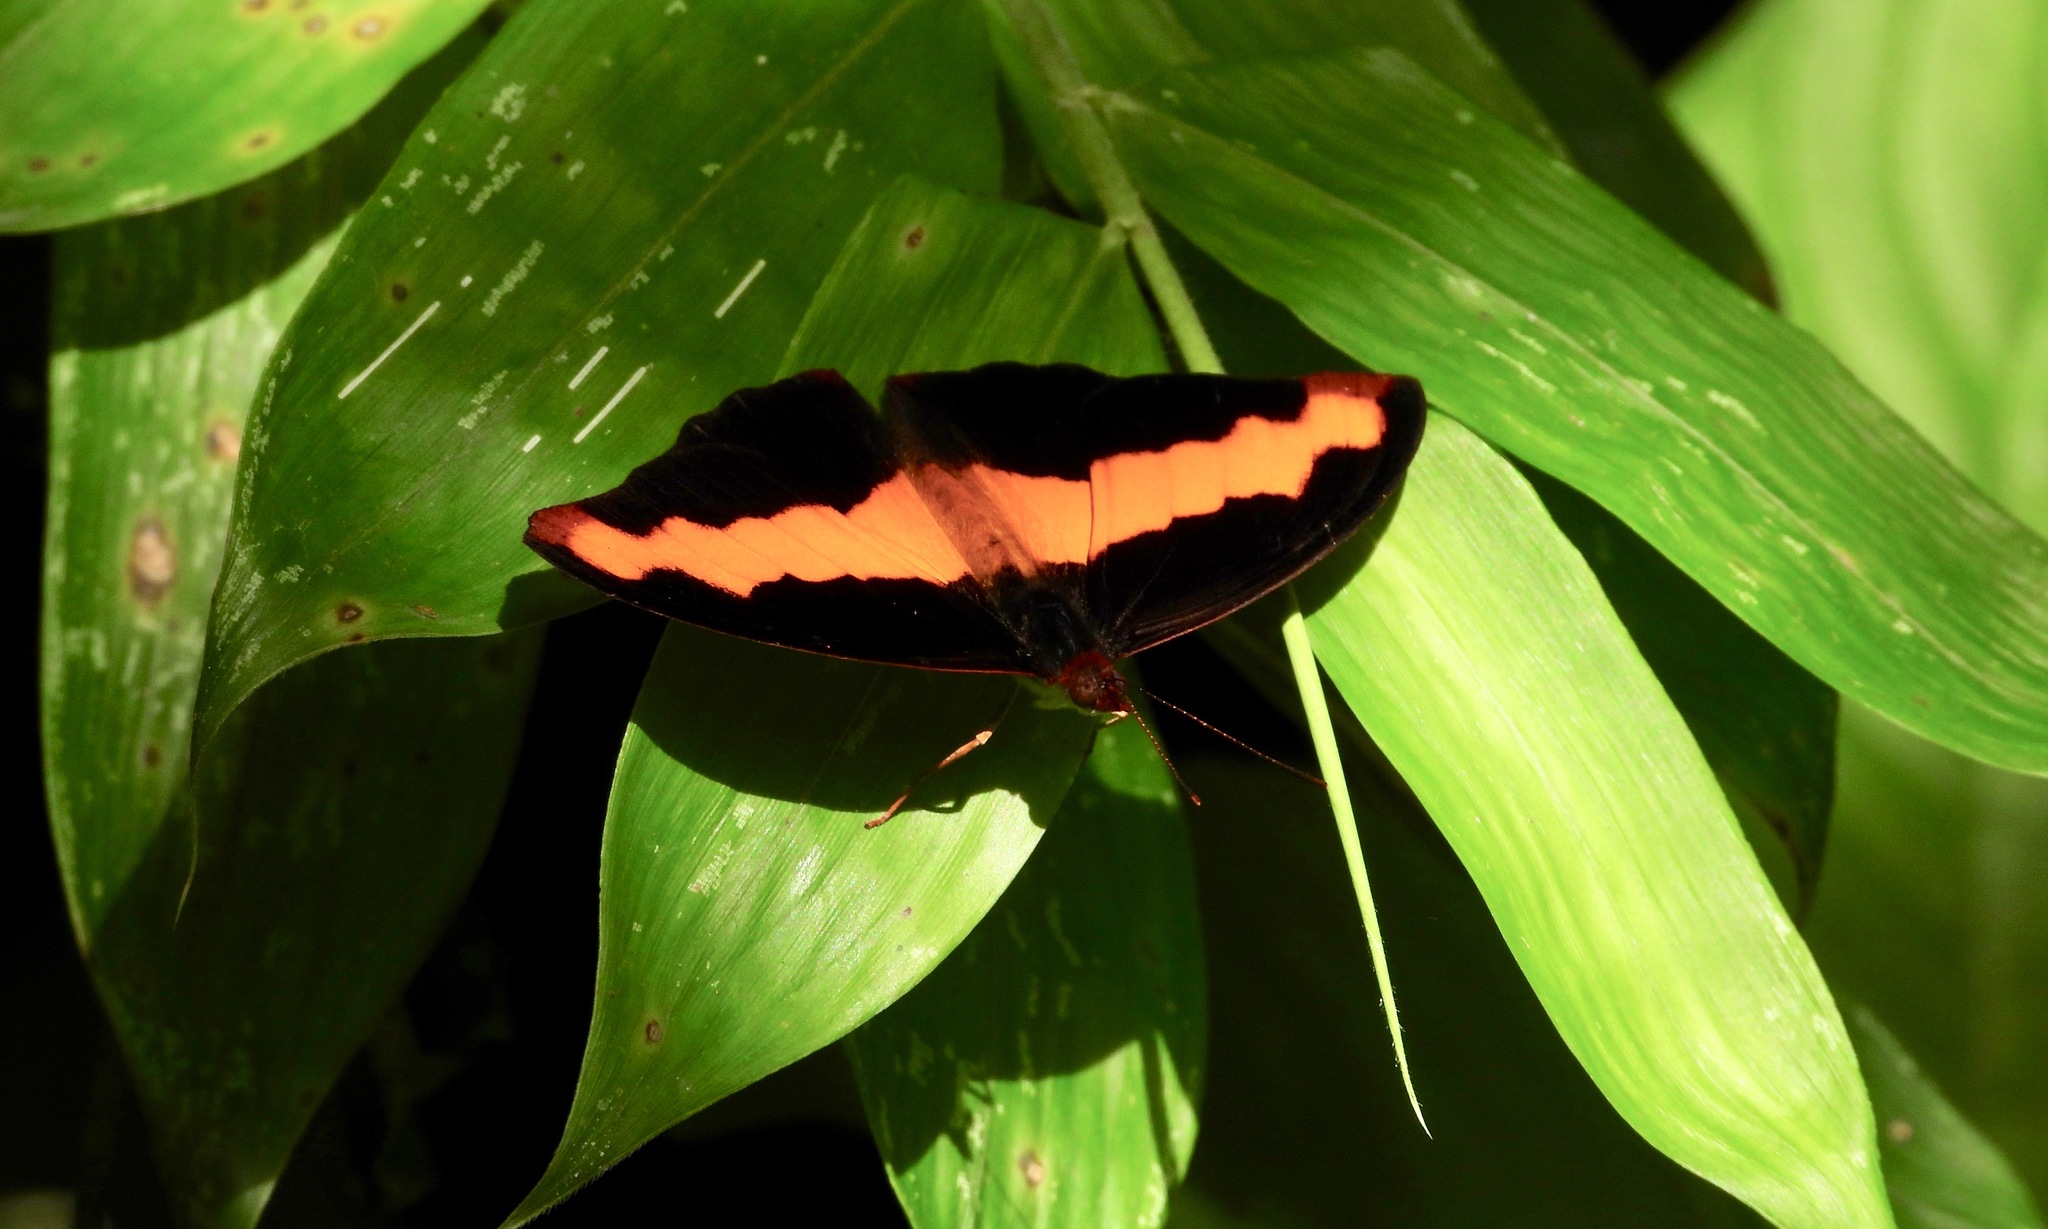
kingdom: Animalia
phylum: Arthropoda
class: Insecta
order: Lepidoptera
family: Nymphalidae
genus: Catonephele
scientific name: Catonephele mexicana
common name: Guatemalan catone
